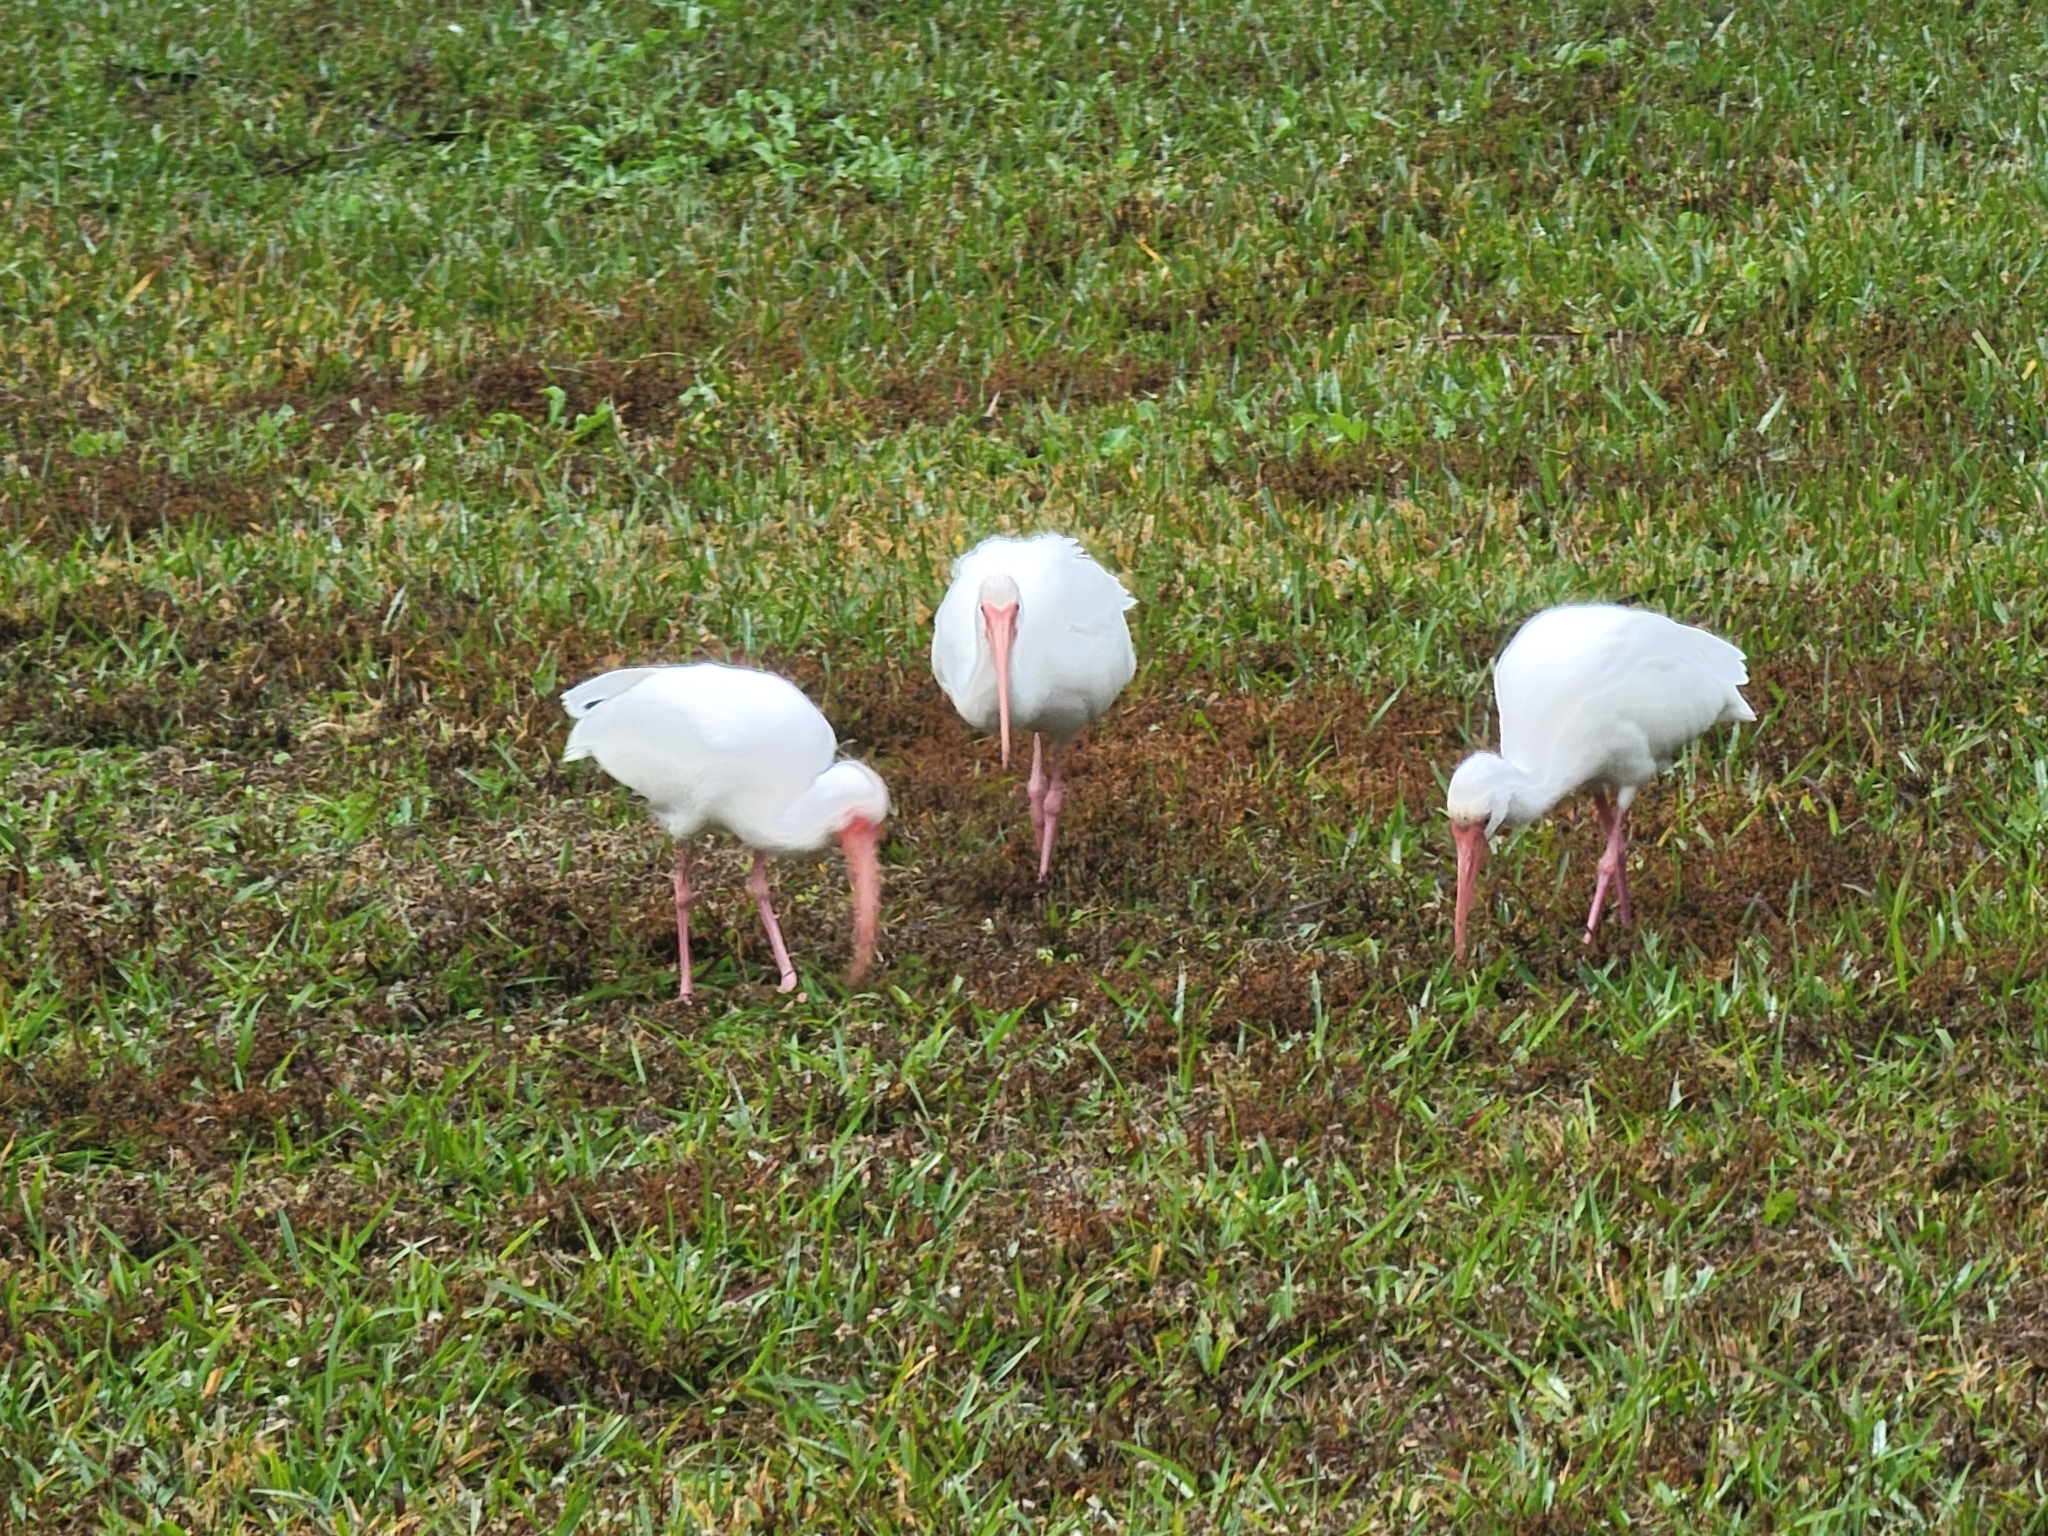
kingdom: Animalia
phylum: Chordata
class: Aves
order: Pelecaniformes
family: Threskiornithidae
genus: Eudocimus
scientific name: Eudocimus albus
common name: White ibis
